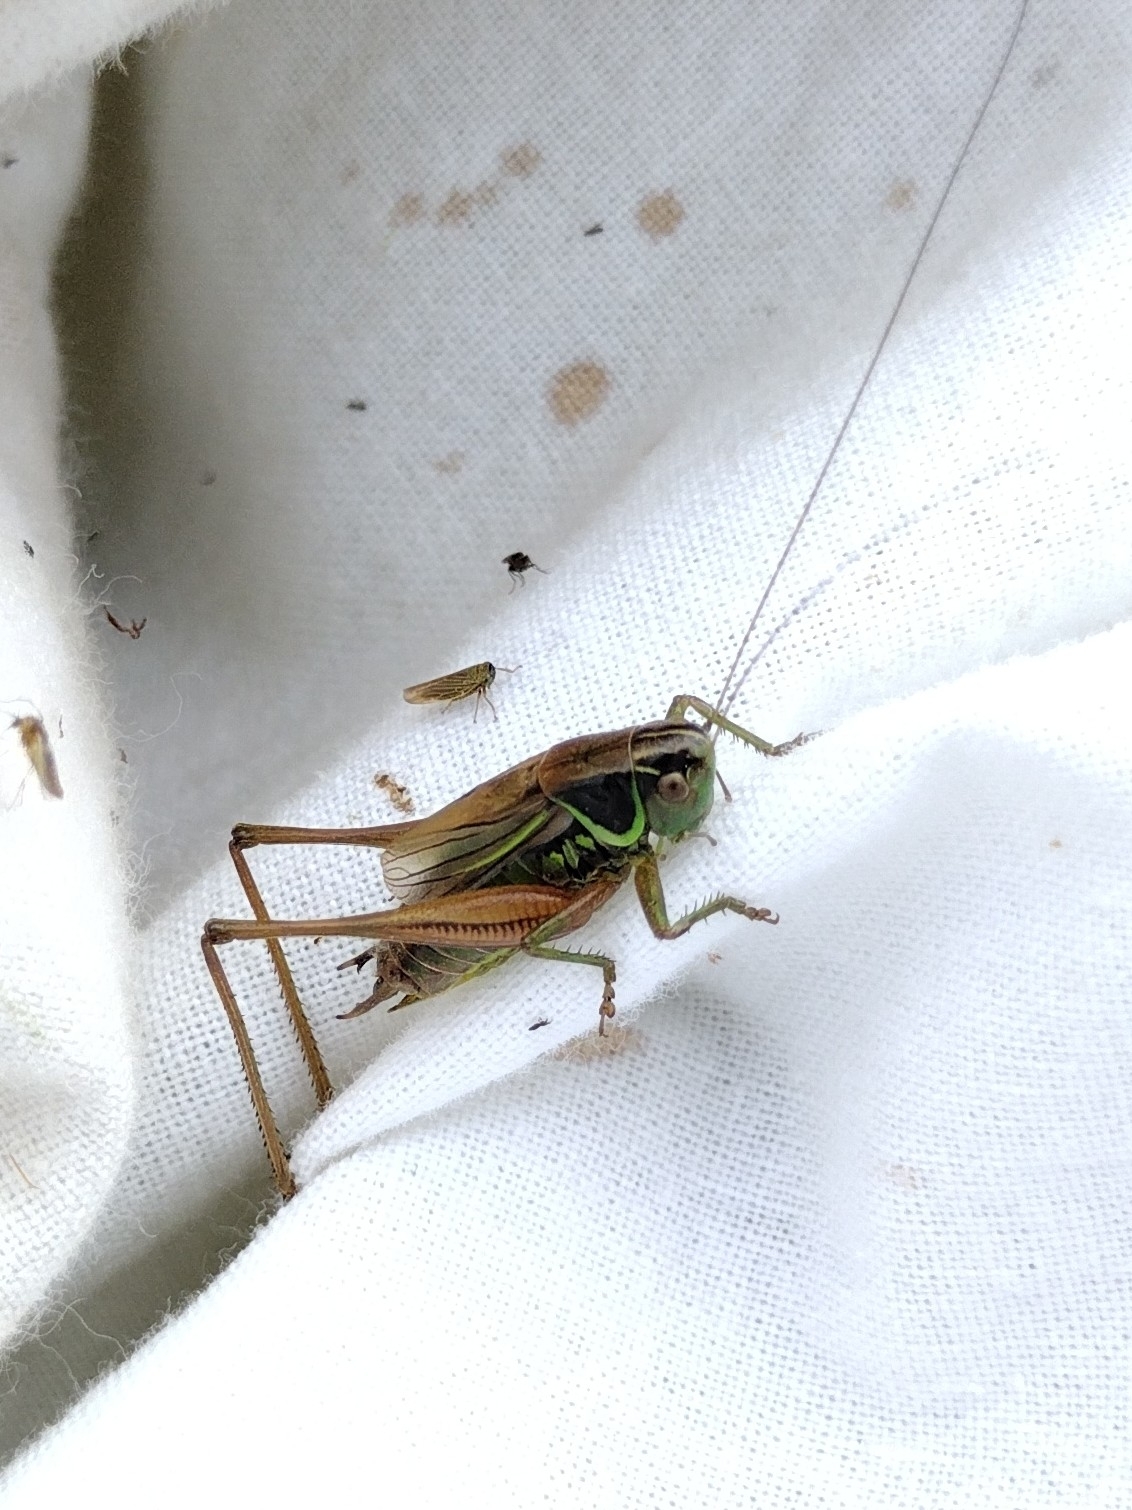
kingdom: Animalia
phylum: Arthropoda
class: Insecta
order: Orthoptera
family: Tettigoniidae
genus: Roeseliana
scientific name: Roeseliana roeselii
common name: Roesel's bush cricket
